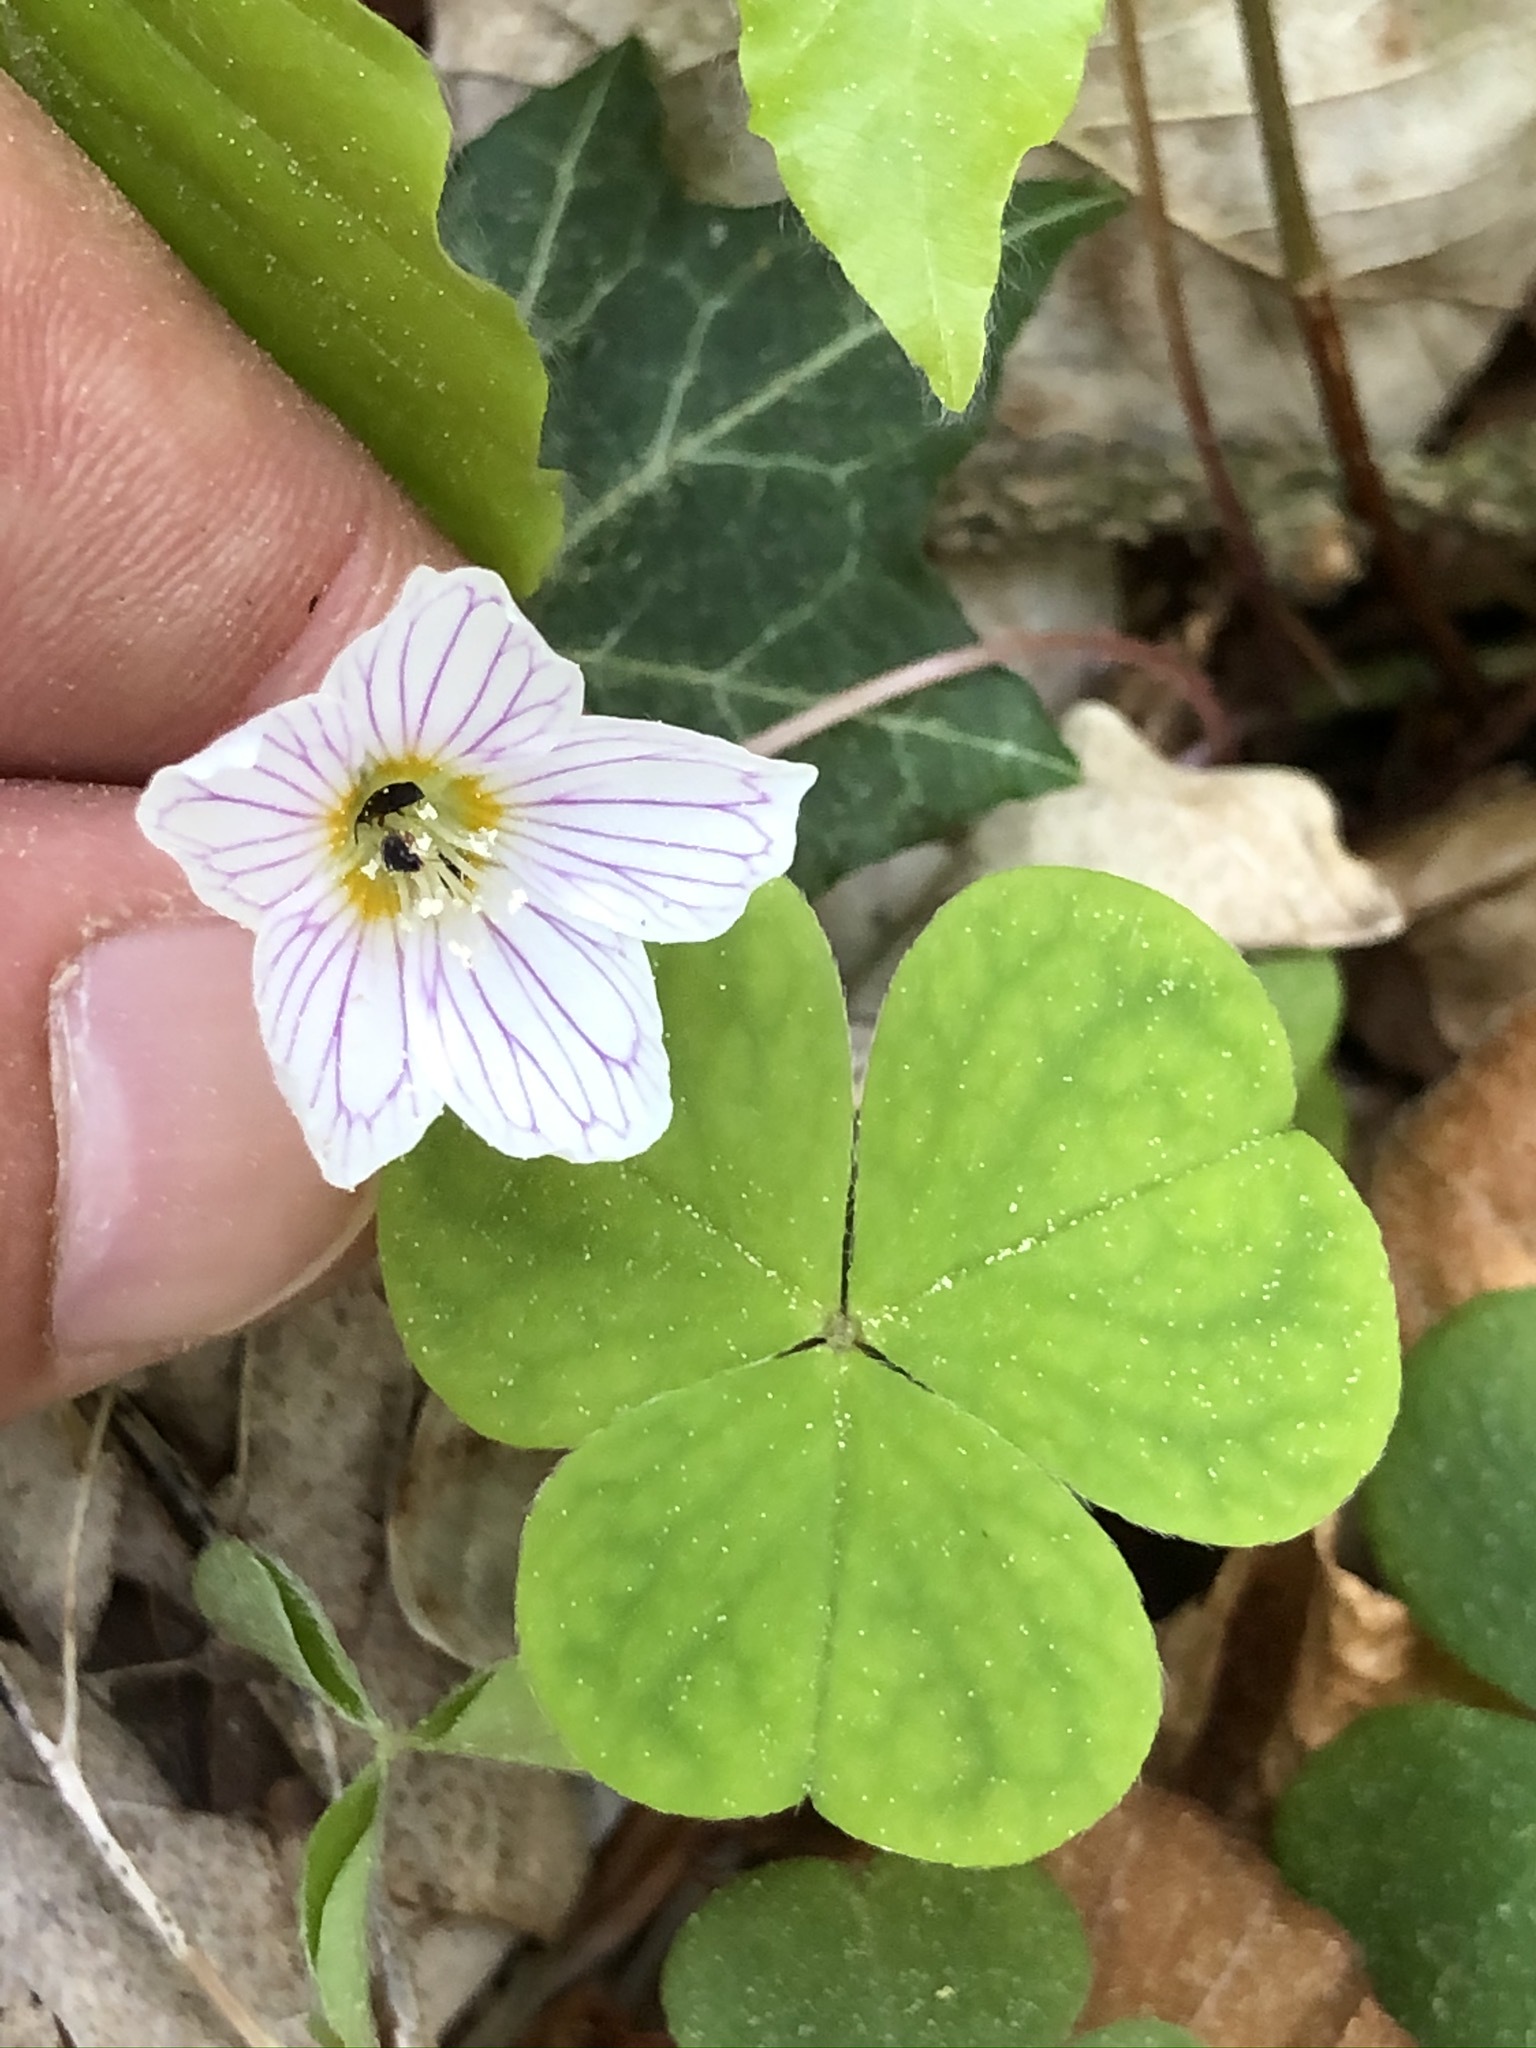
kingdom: Plantae
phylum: Tracheophyta
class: Magnoliopsida
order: Oxalidales
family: Oxalidaceae
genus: Oxalis
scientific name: Oxalis acetosella
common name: Wood-sorrel
